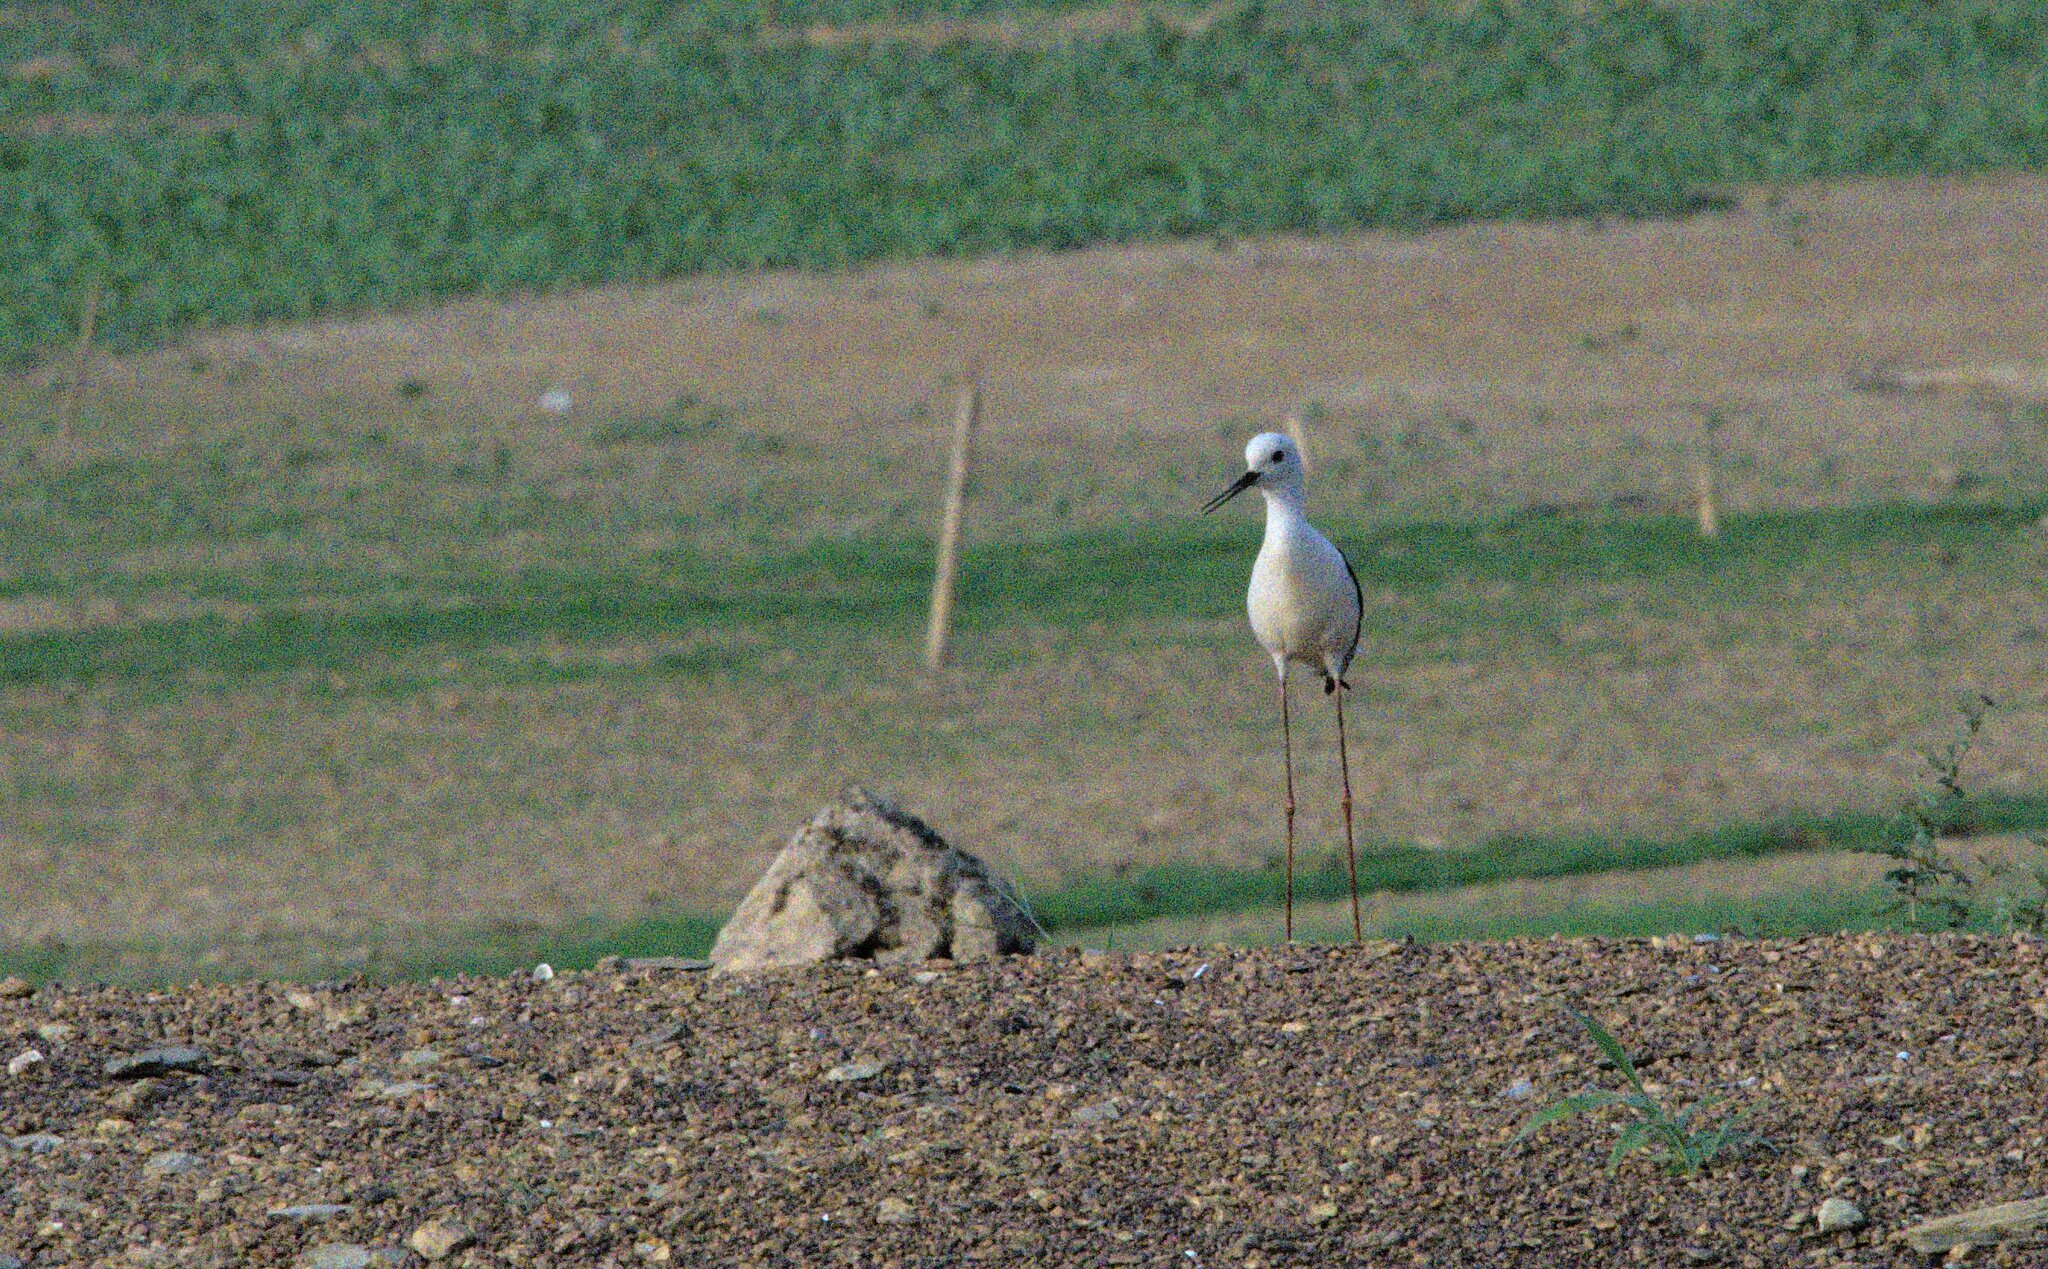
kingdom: Animalia
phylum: Chordata
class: Aves
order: Charadriiformes
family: Recurvirostridae
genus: Himantopus
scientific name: Himantopus himantopus
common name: Black-winged stilt
